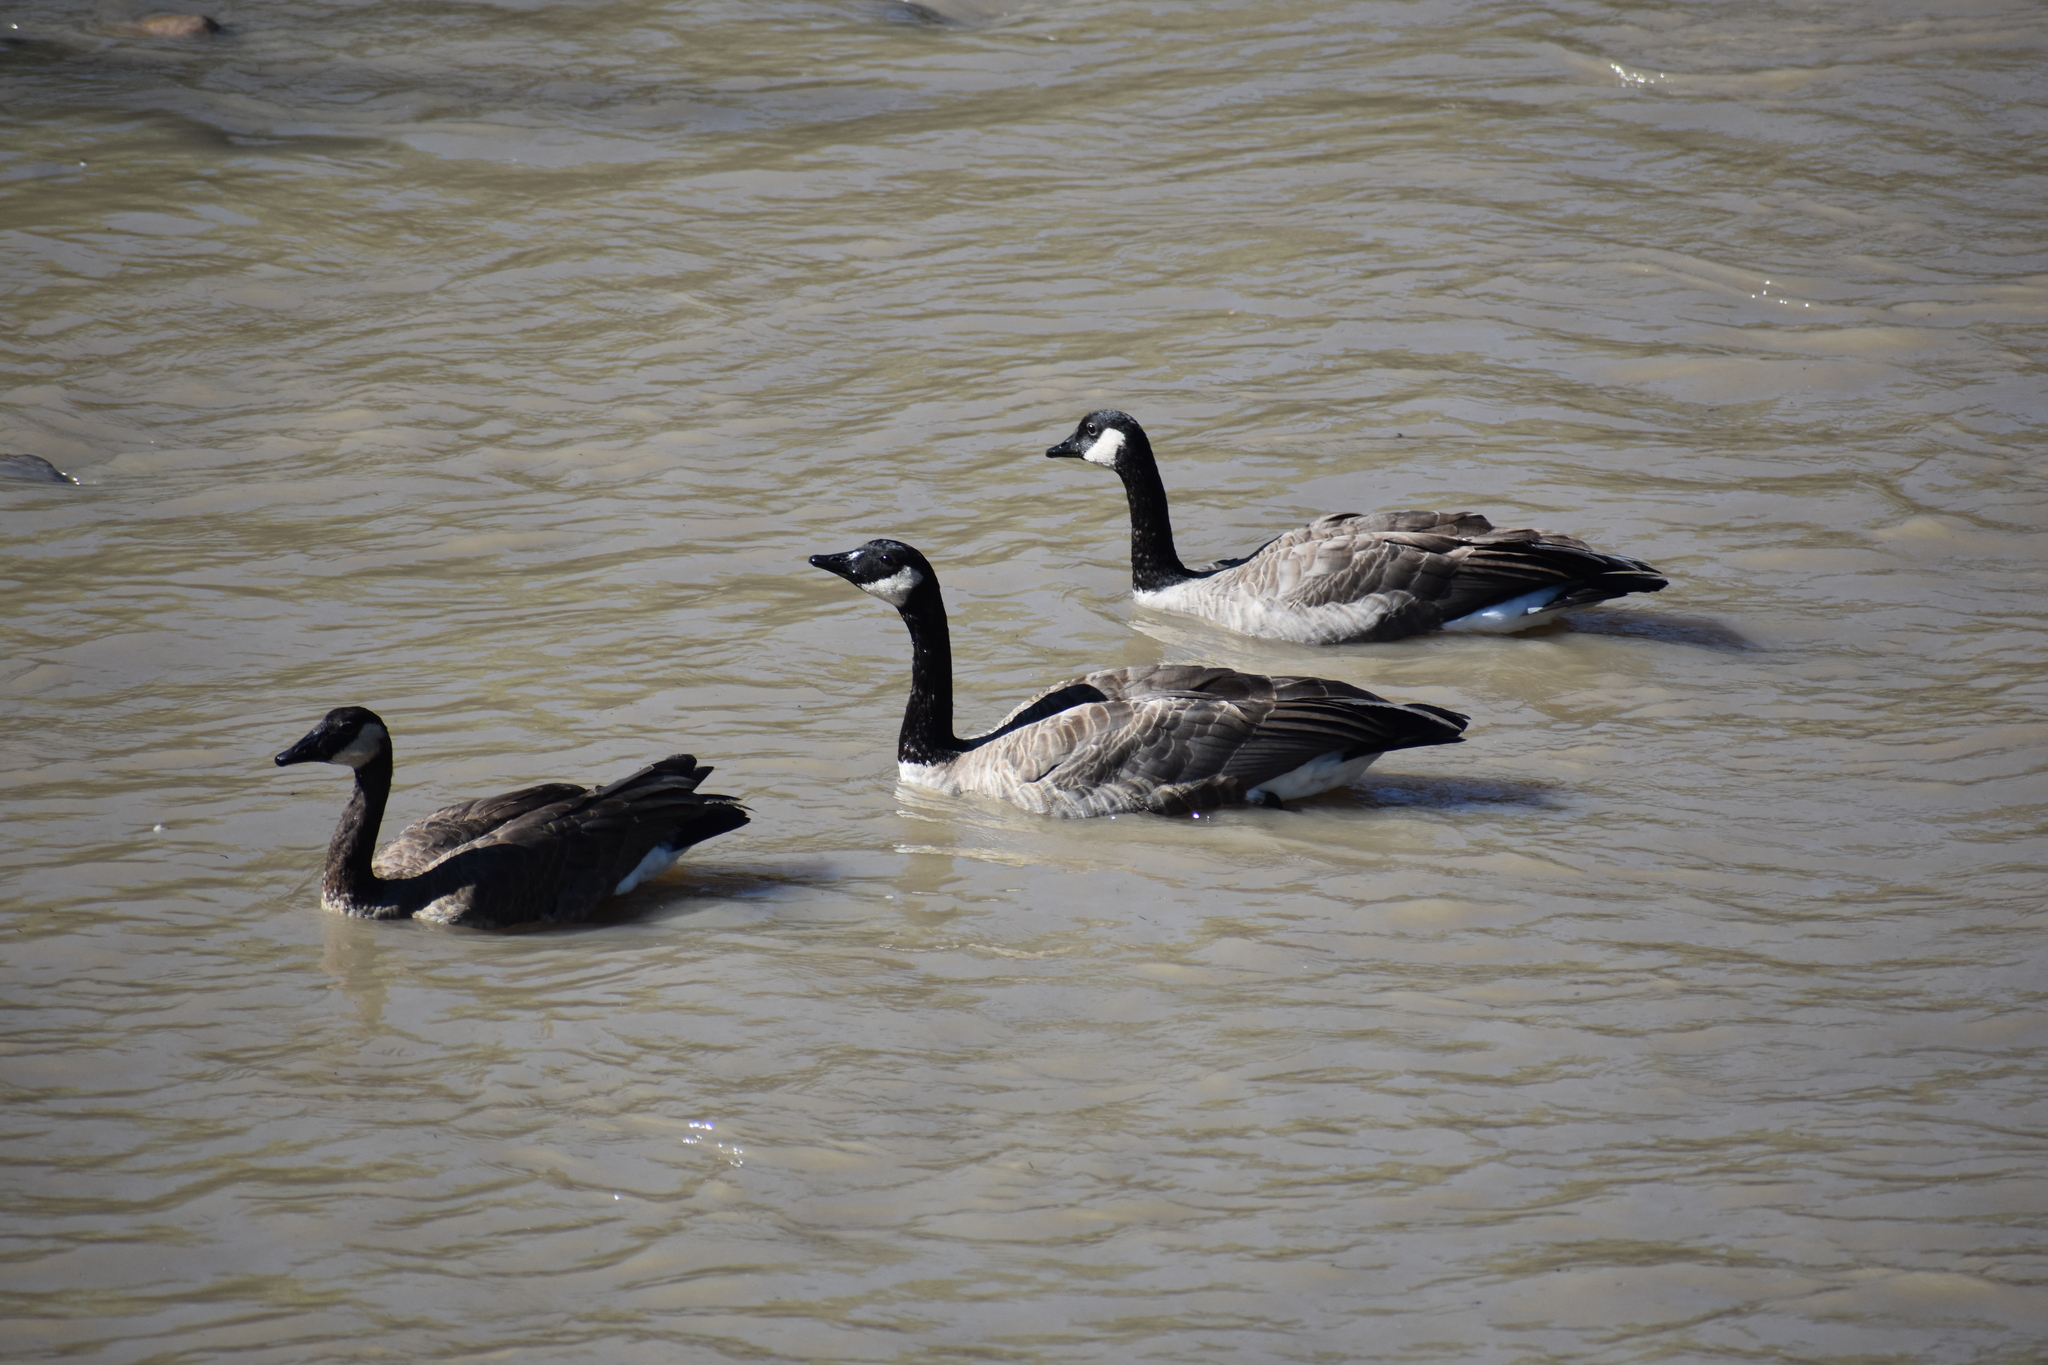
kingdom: Animalia
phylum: Chordata
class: Aves
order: Anseriformes
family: Anatidae
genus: Branta
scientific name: Branta canadensis
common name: Canada goose
